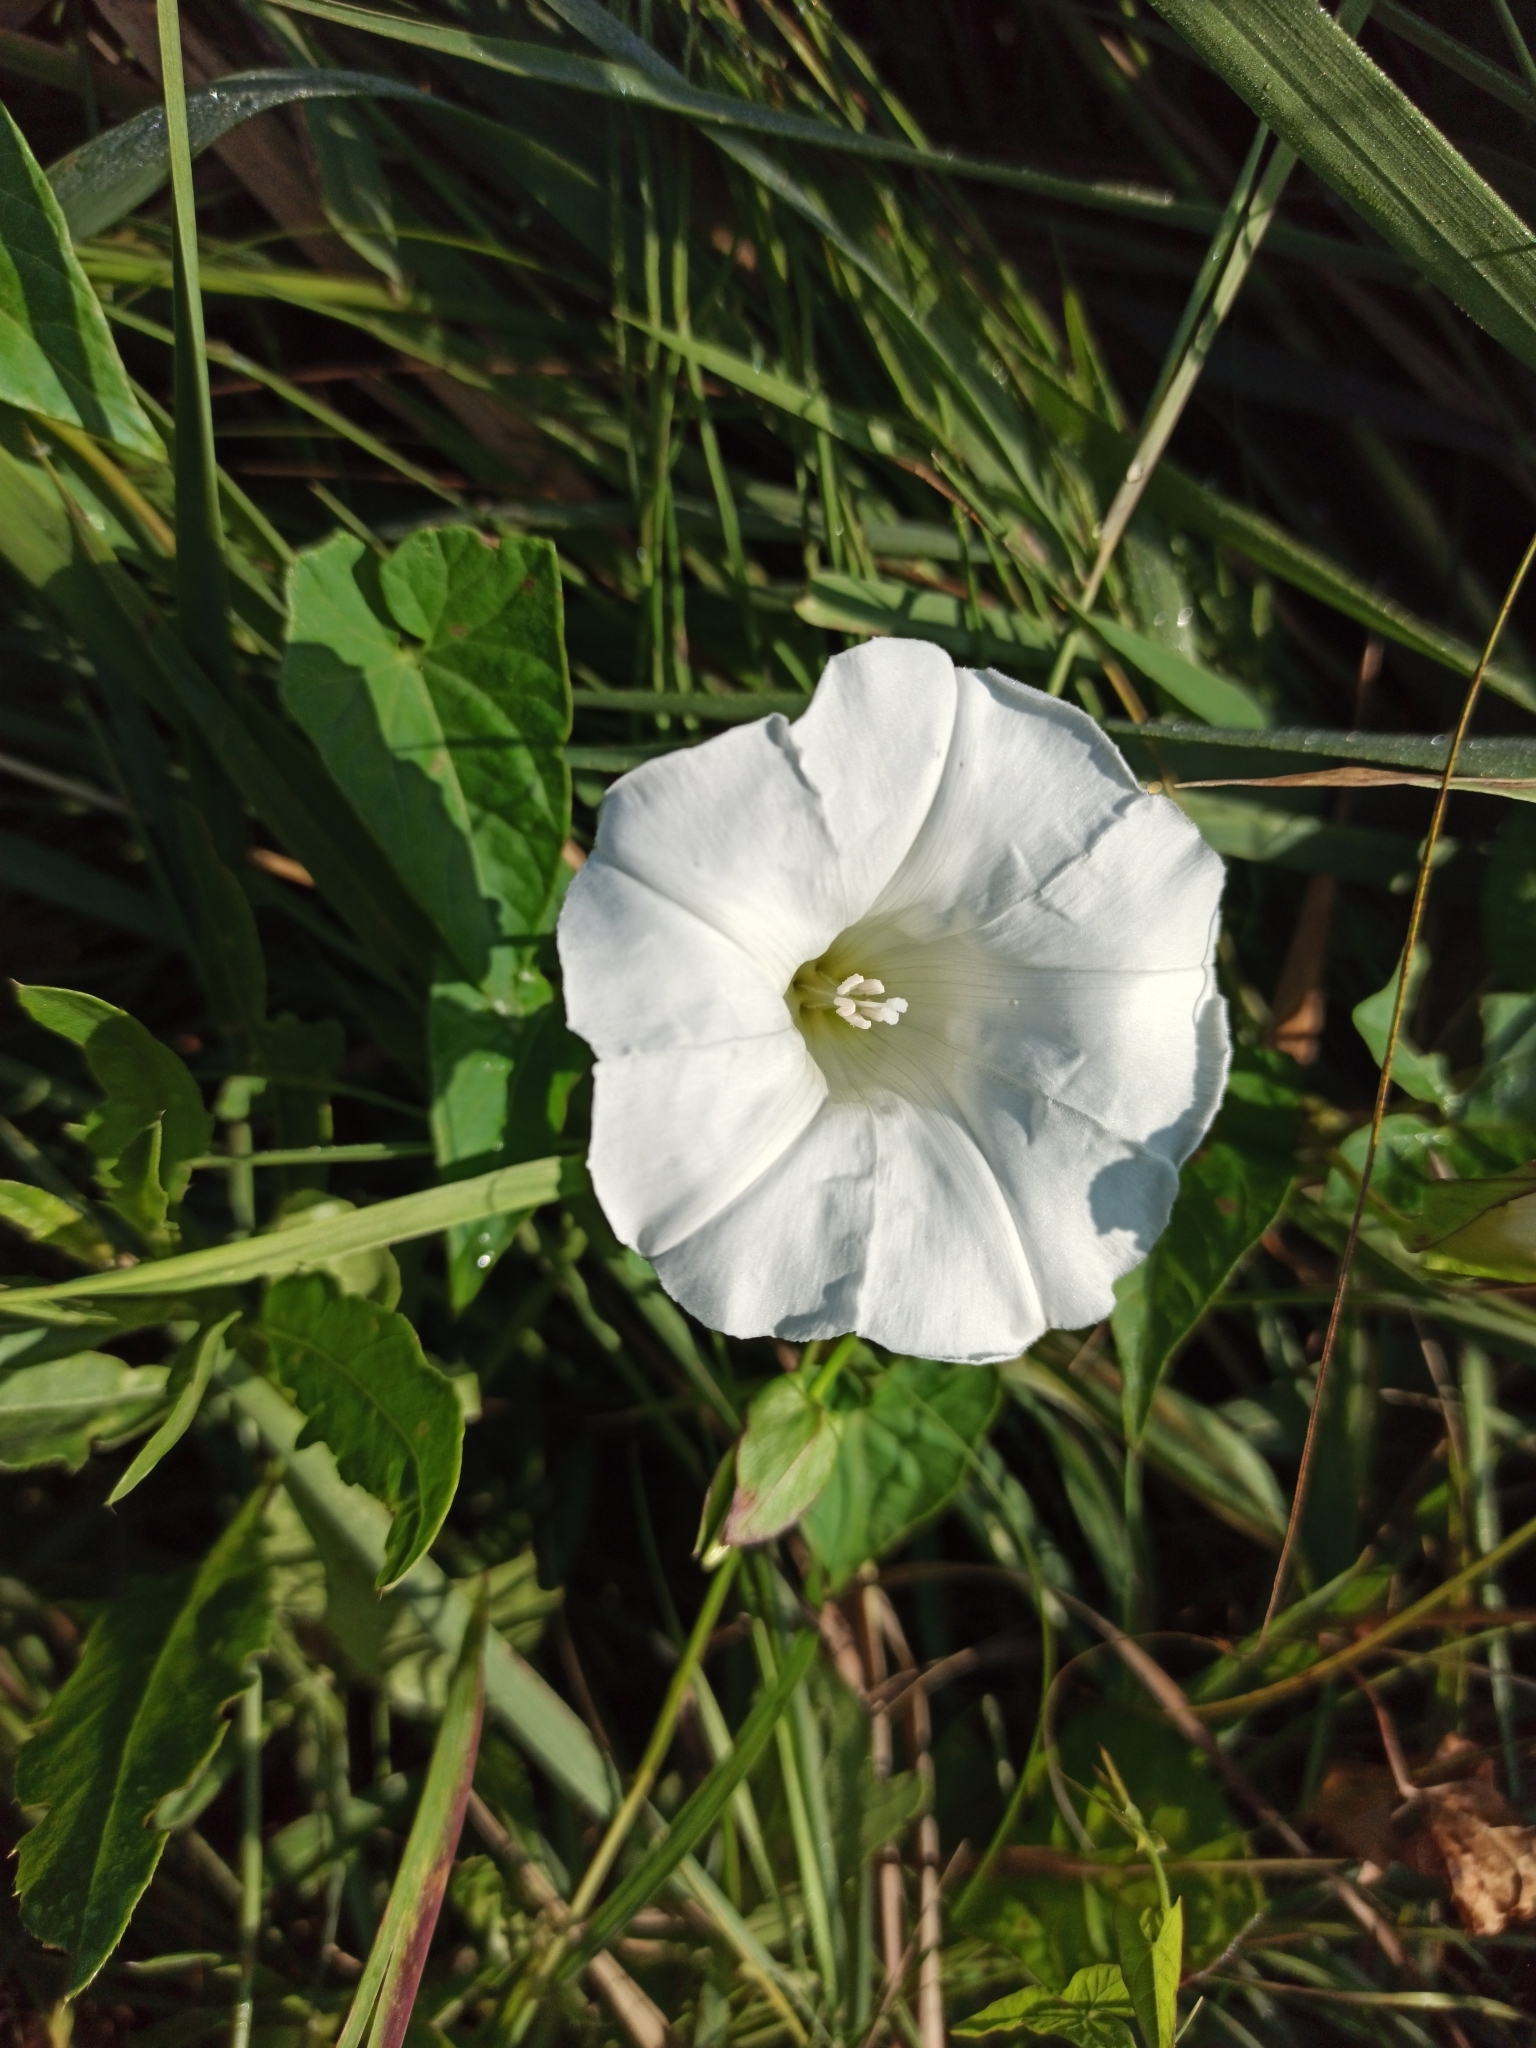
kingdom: Plantae
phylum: Tracheophyta
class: Magnoliopsida
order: Solanales
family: Convolvulaceae
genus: Calystegia
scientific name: Calystegia sepium
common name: Hedge bindweed
